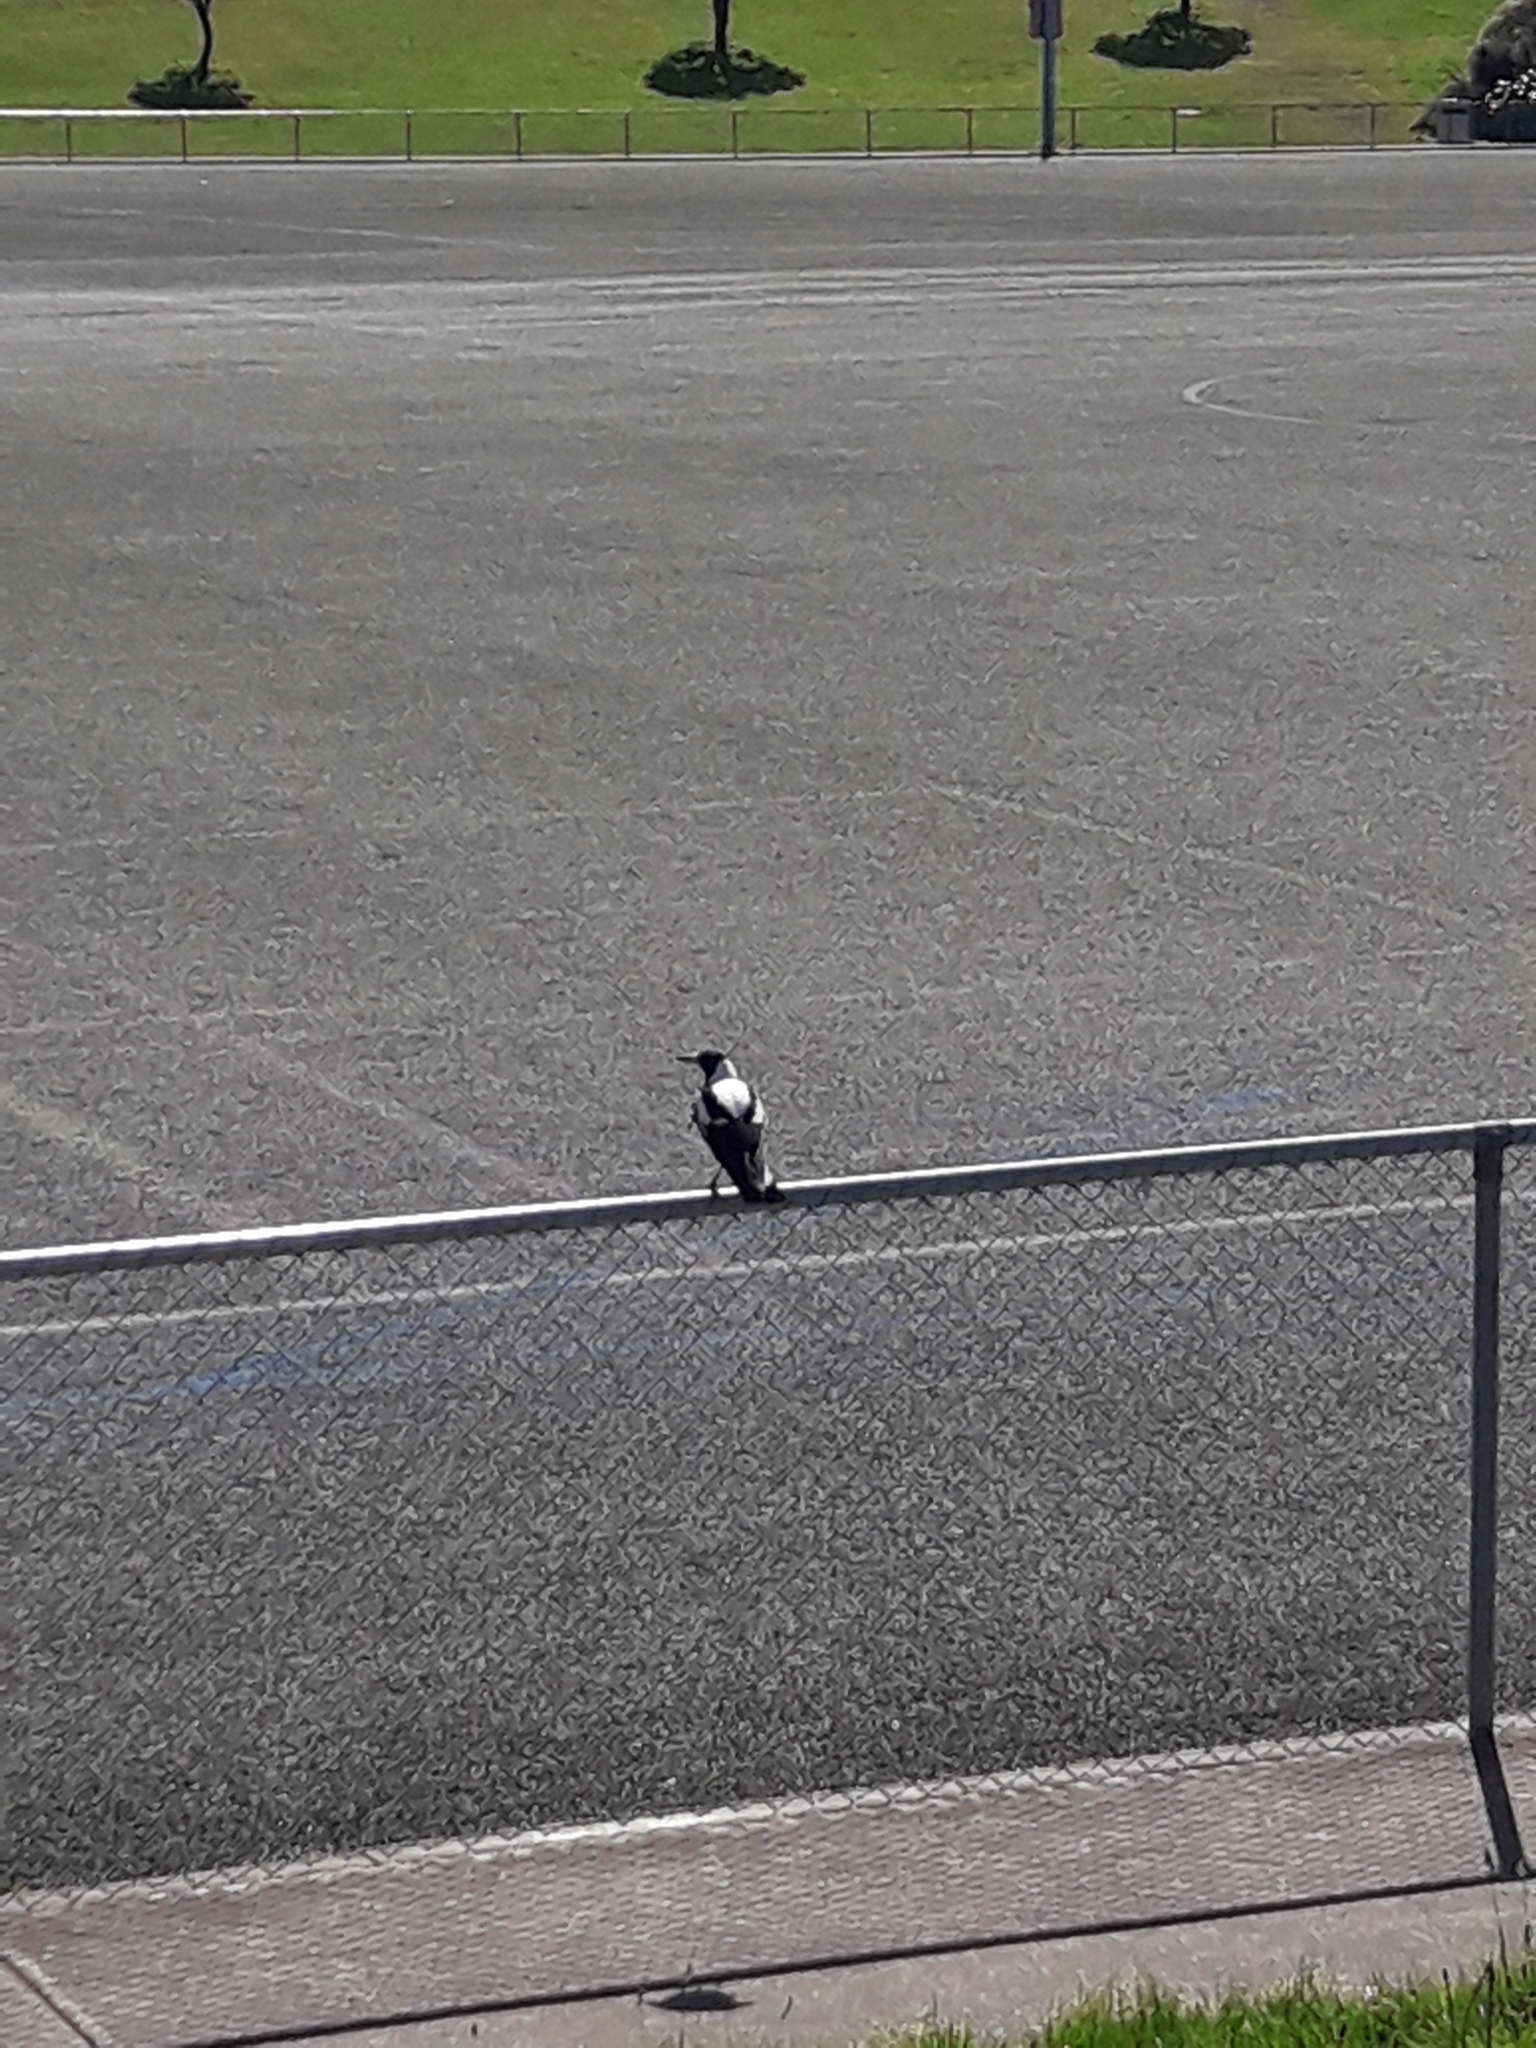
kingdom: Animalia
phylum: Chordata
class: Aves
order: Passeriformes
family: Cracticidae
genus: Gymnorhina
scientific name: Gymnorhina tibicen
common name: Australian magpie
